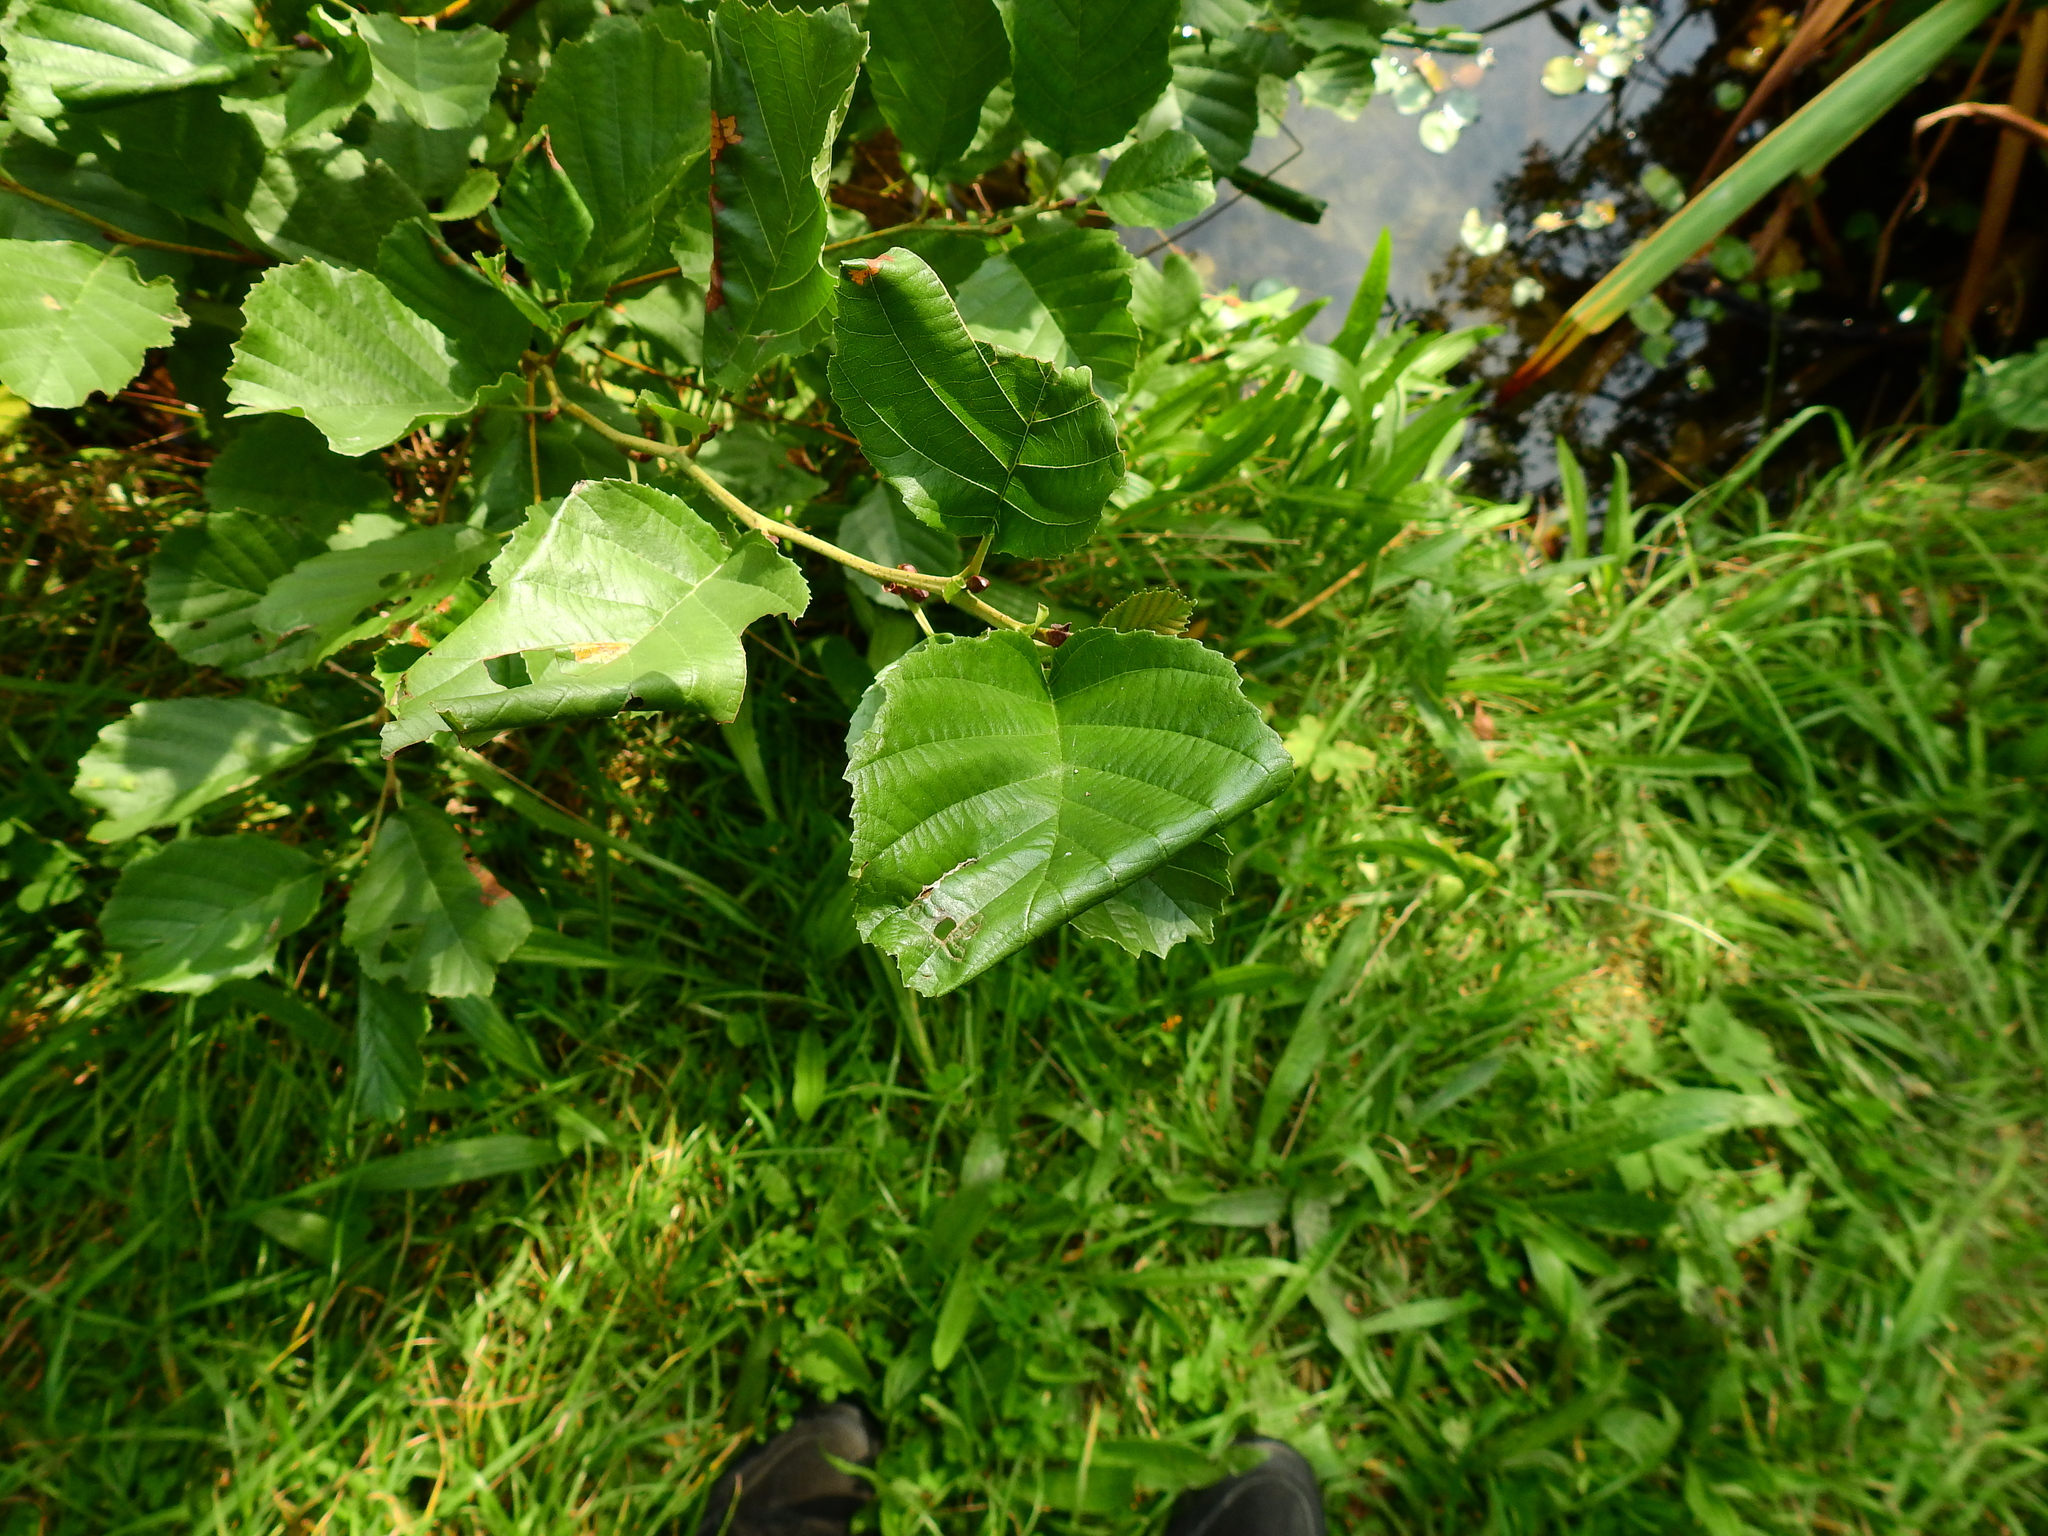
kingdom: Animalia
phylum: Arthropoda
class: Insecta
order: Lepidoptera
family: Gracillariidae
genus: Caloptilia
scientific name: Caloptilia elongella
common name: Pale red slender
